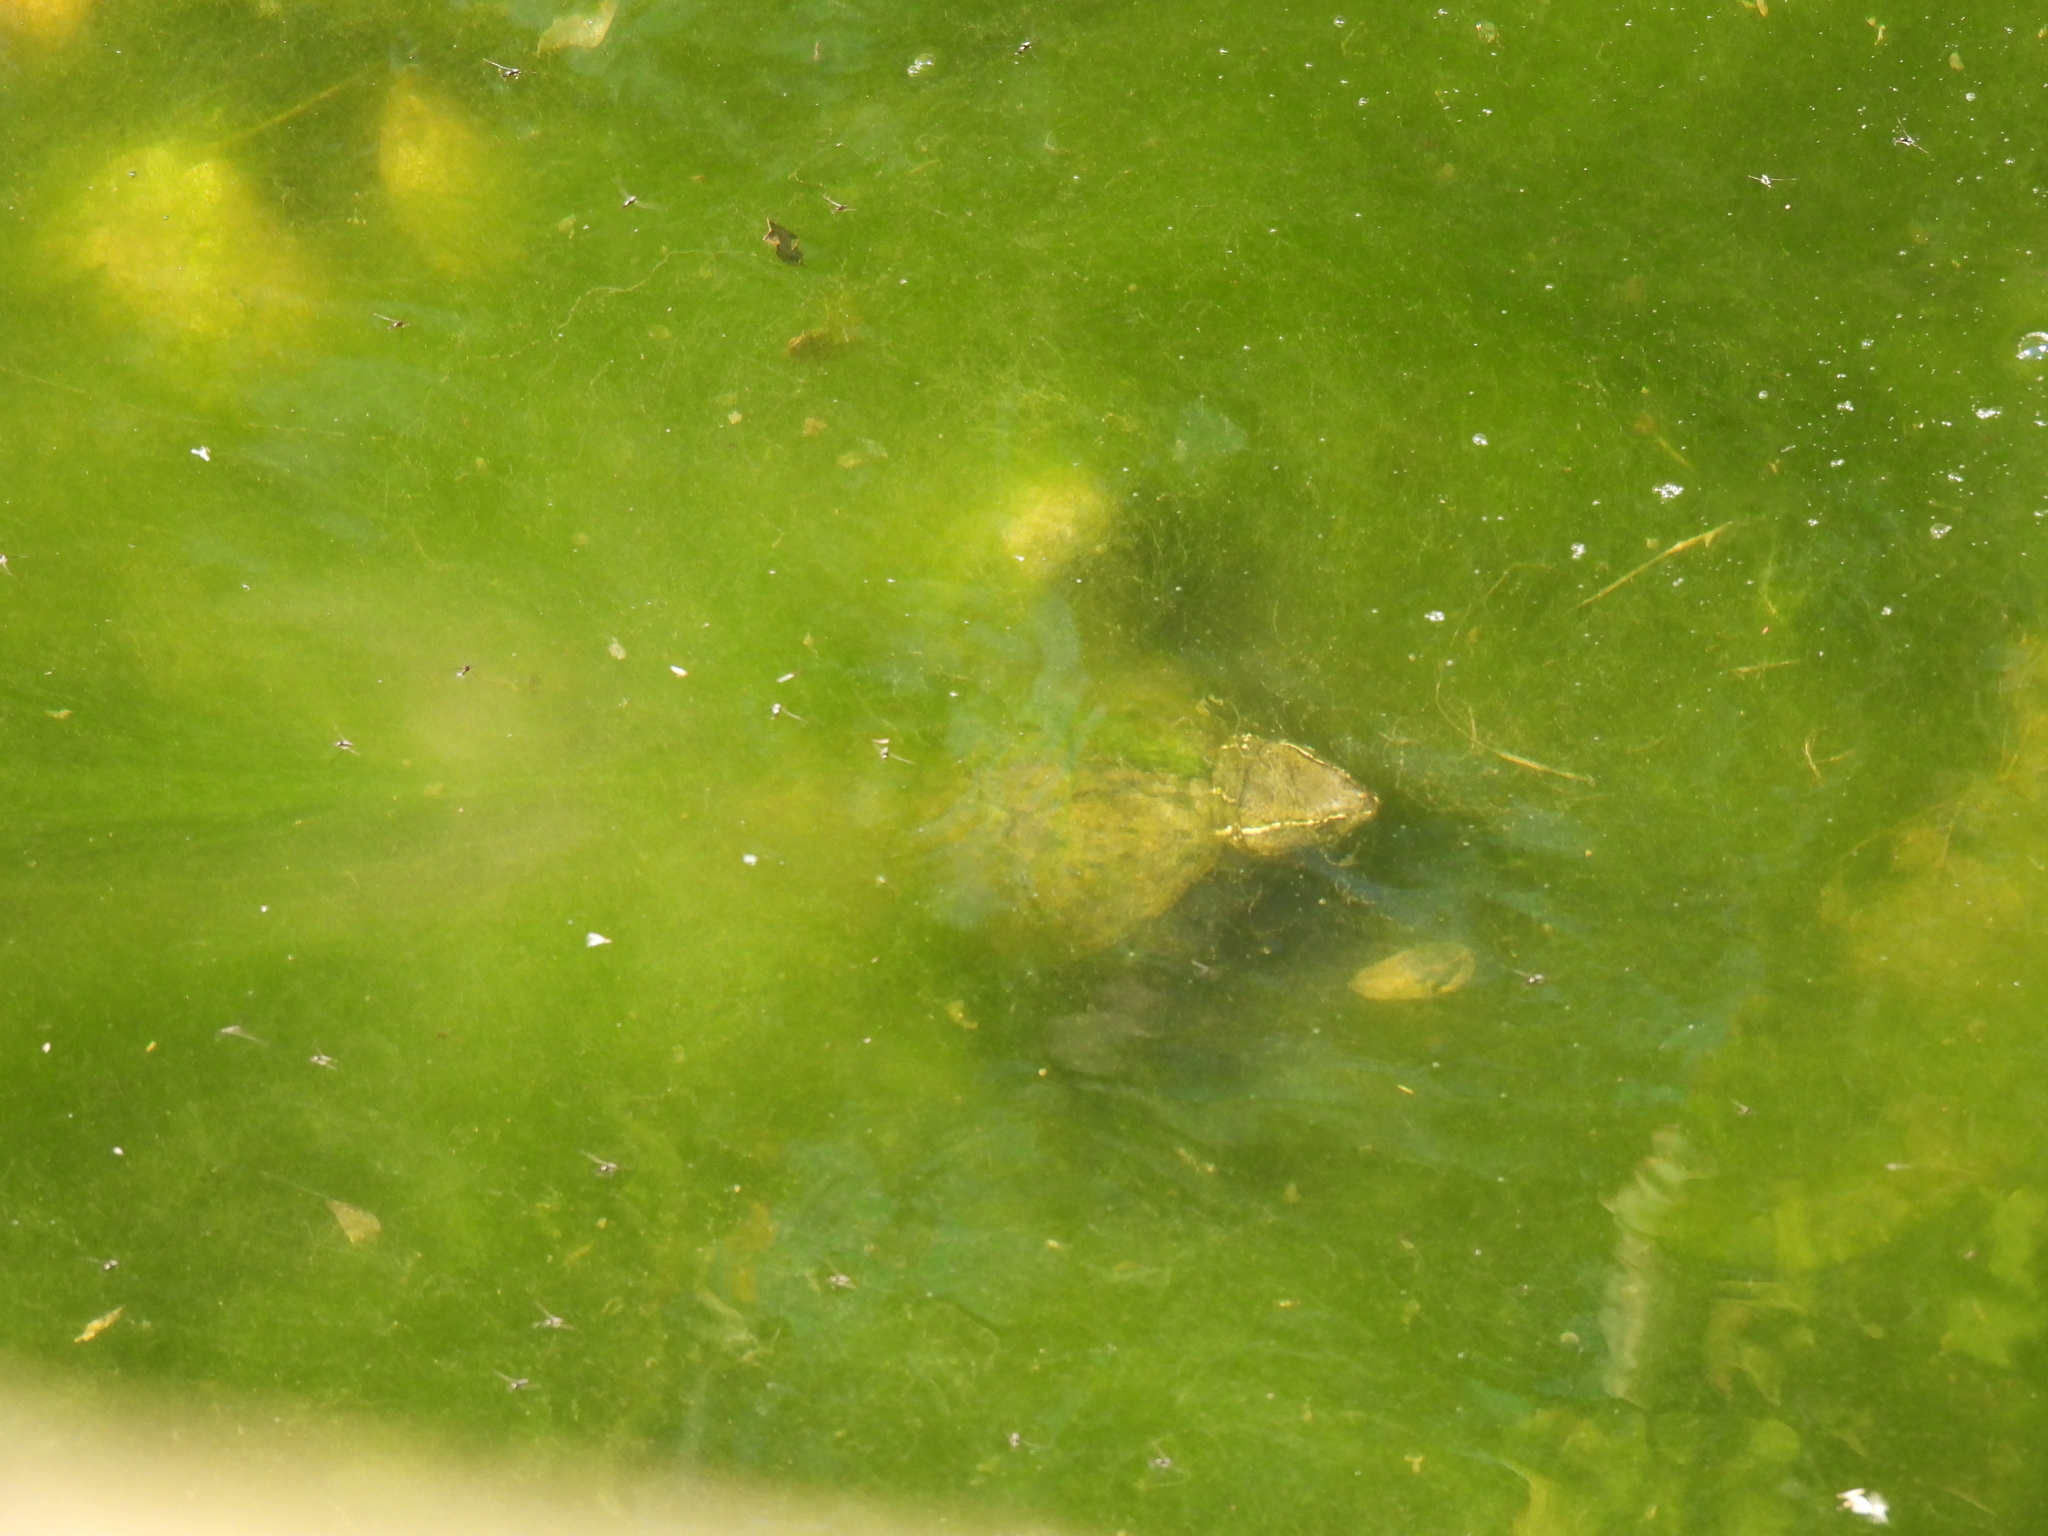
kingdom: Animalia
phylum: Chordata
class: Testudines
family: Kinosternidae
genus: Sternotherus
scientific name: Sternotherus odoratus
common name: Common musk turtle
